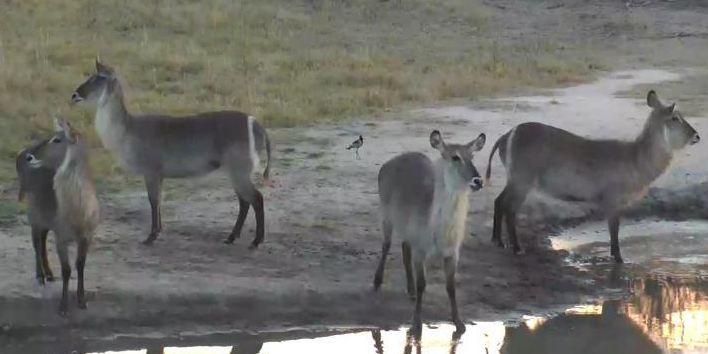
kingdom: Animalia
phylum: Chordata
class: Mammalia
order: Artiodactyla
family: Bovidae
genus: Kobus
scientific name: Kobus ellipsiprymnus
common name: Waterbuck
